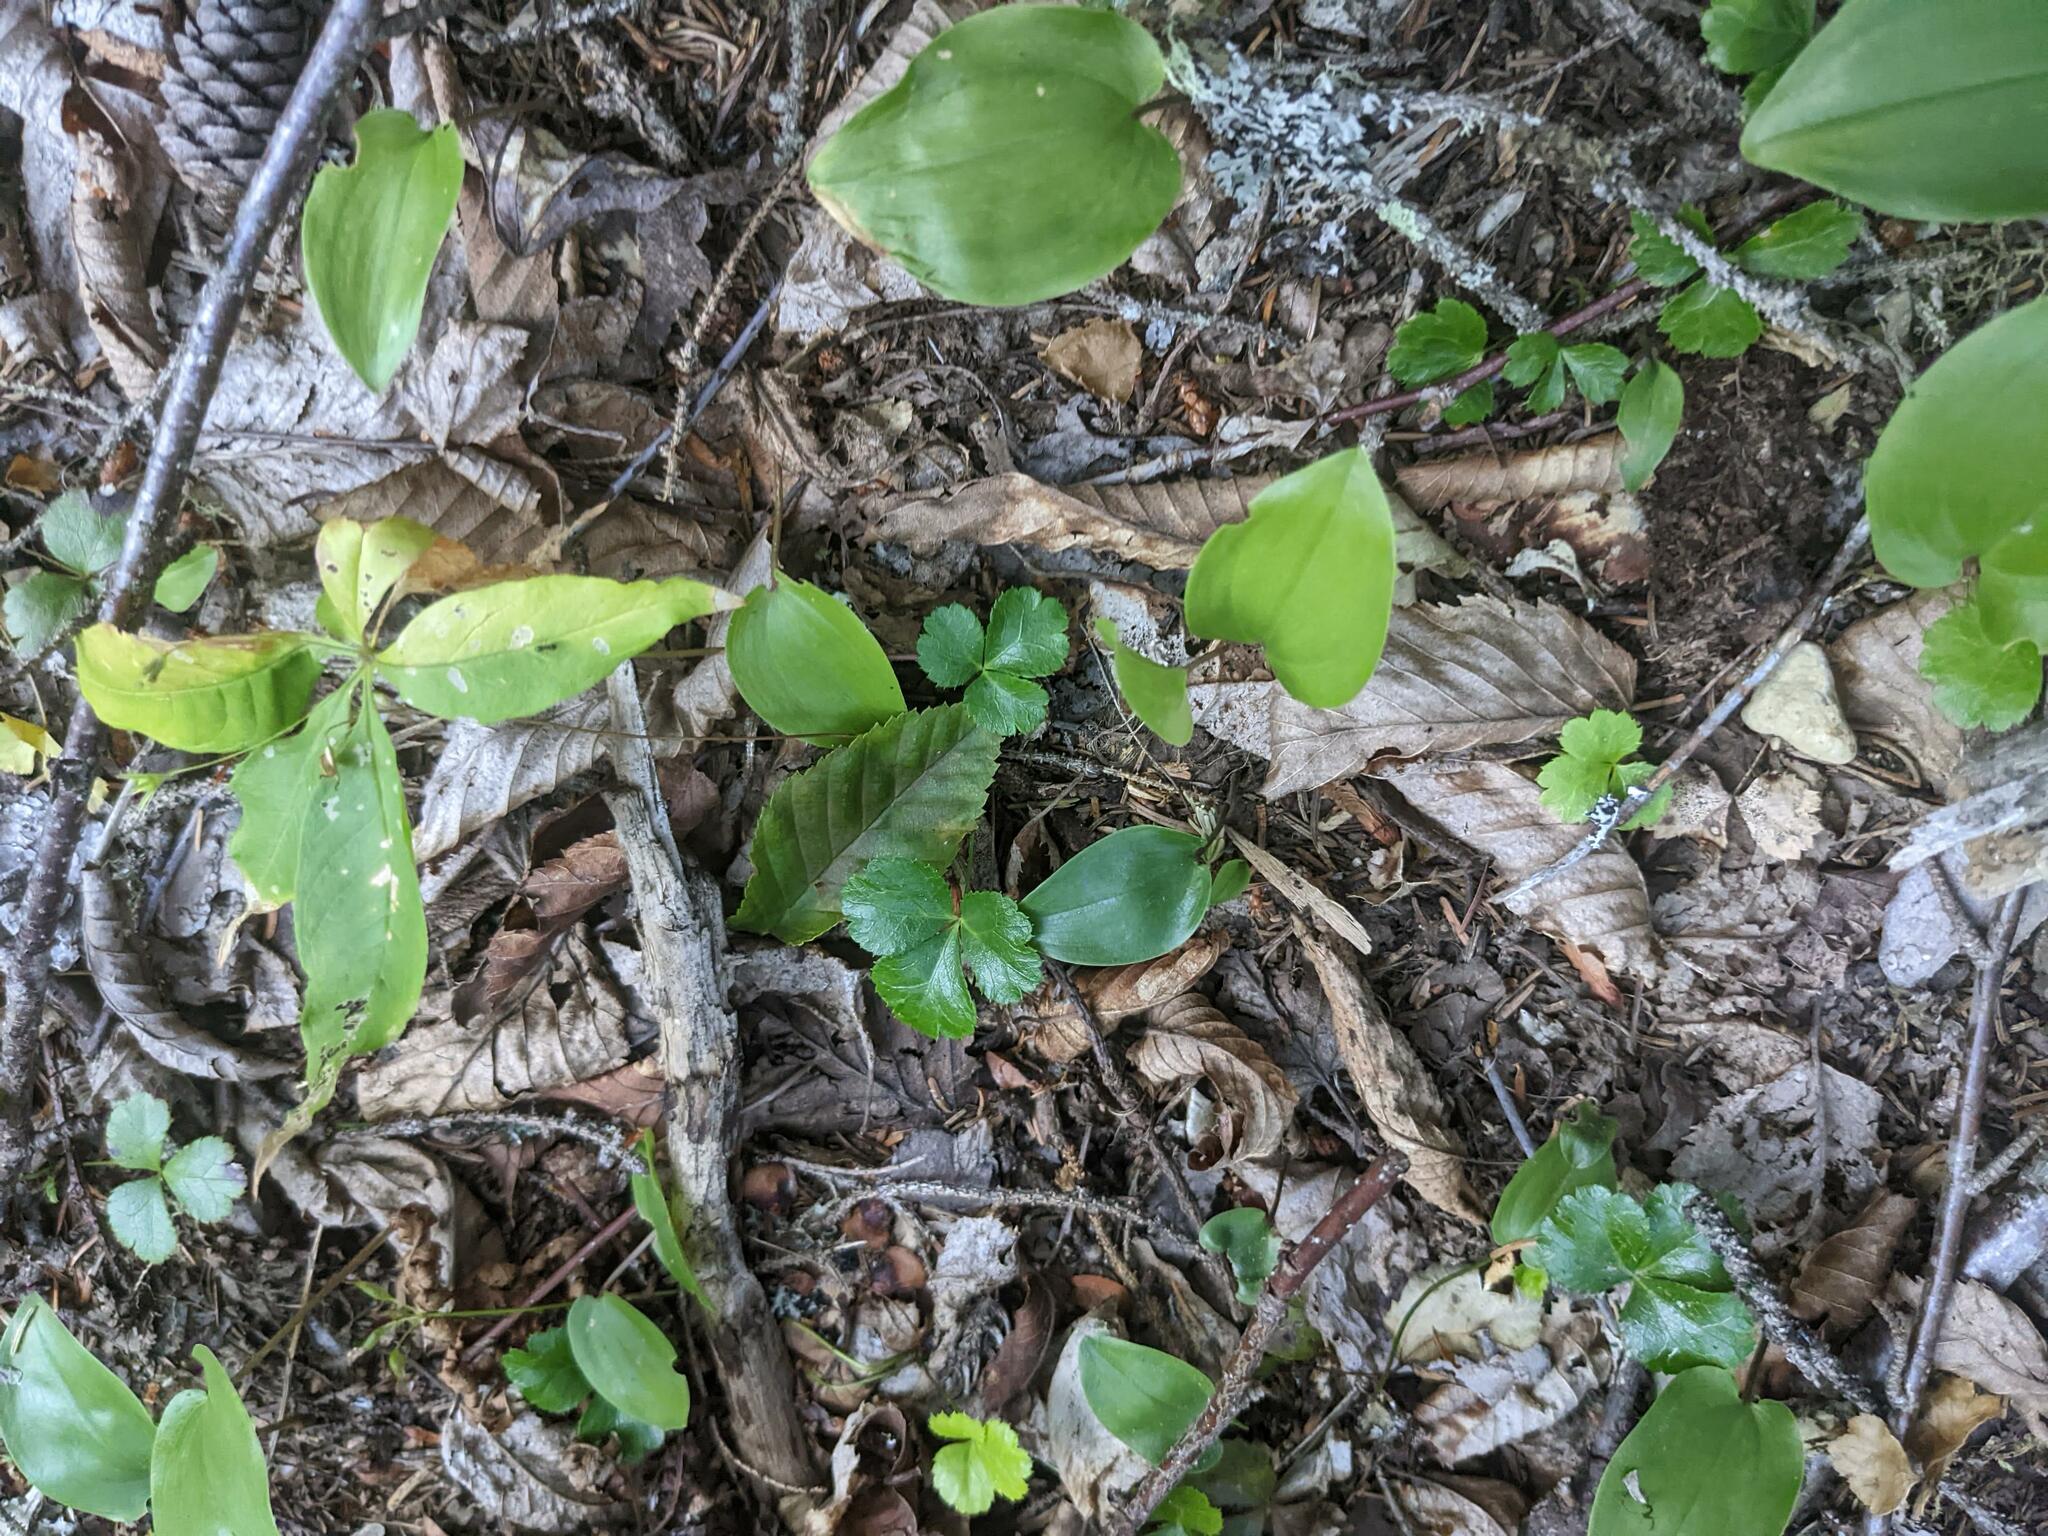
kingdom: Plantae
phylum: Tracheophyta
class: Liliopsida
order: Asparagales
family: Asparagaceae
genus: Maianthemum
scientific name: Maianthemum canadense
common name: False lily-of-the-valley
